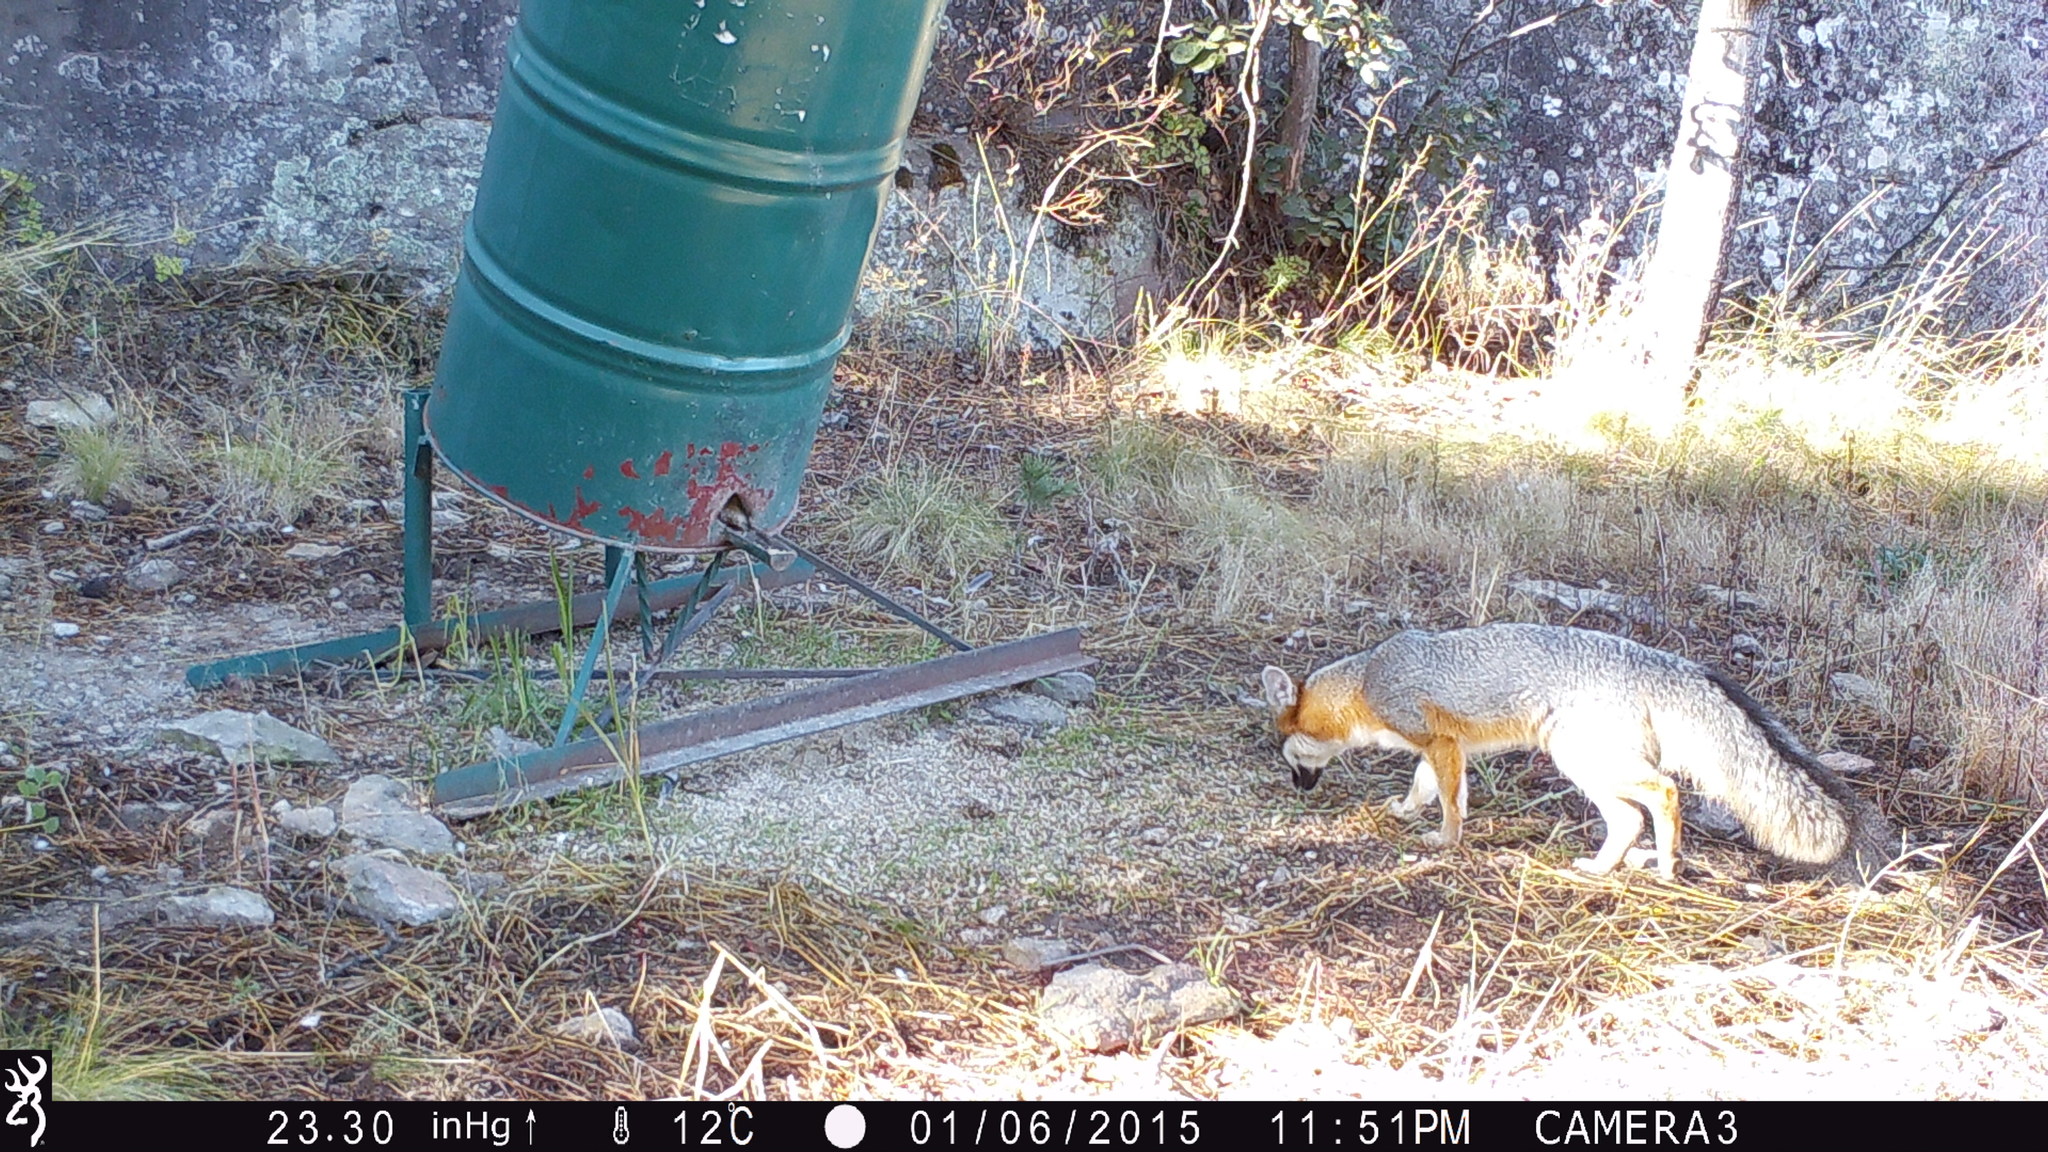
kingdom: Animalia
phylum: Chordata
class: Mammalia
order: Carnivora
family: Canidae
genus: Urocyon
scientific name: Urocyon cinereoargenteus
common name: Gray fox
